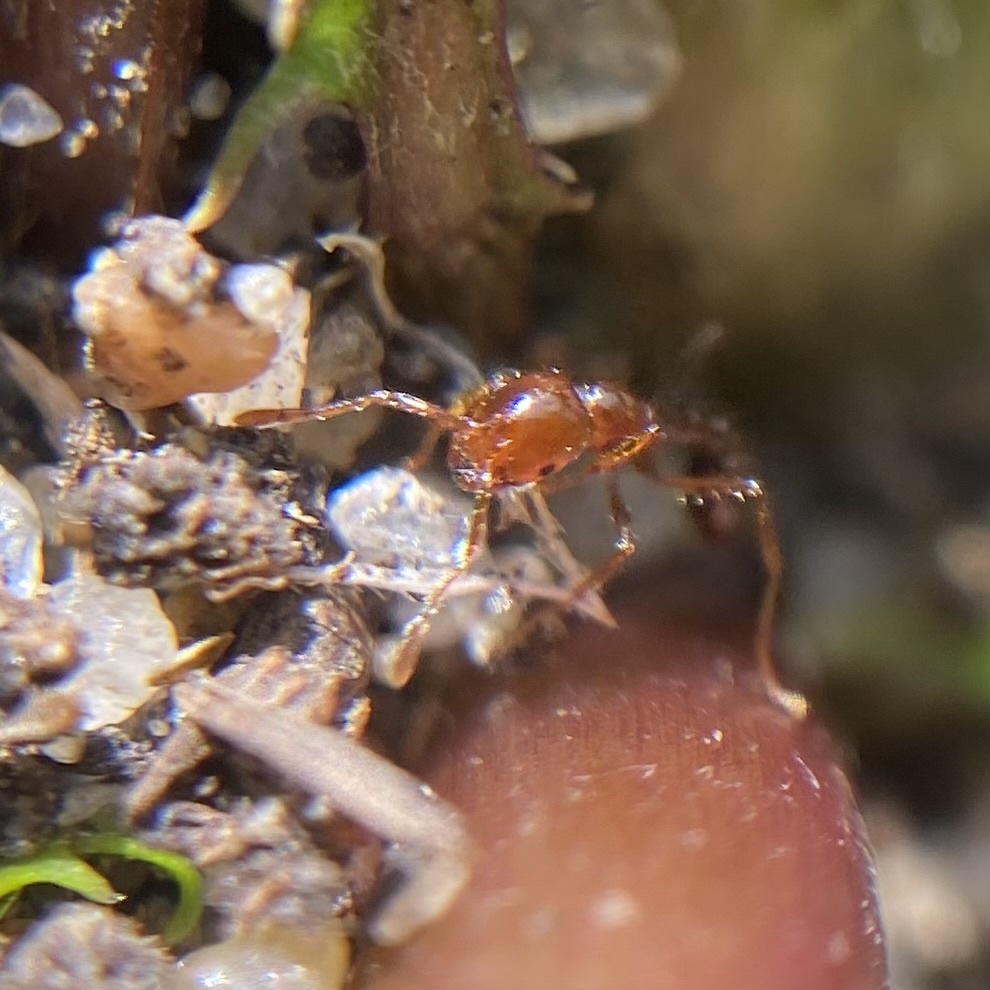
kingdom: Animalia
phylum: Arthropoda
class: Insecta
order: Hymenoptera
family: Formicidae
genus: Solenopsis
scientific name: Solenopsis invicta
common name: Red imported fire ant
